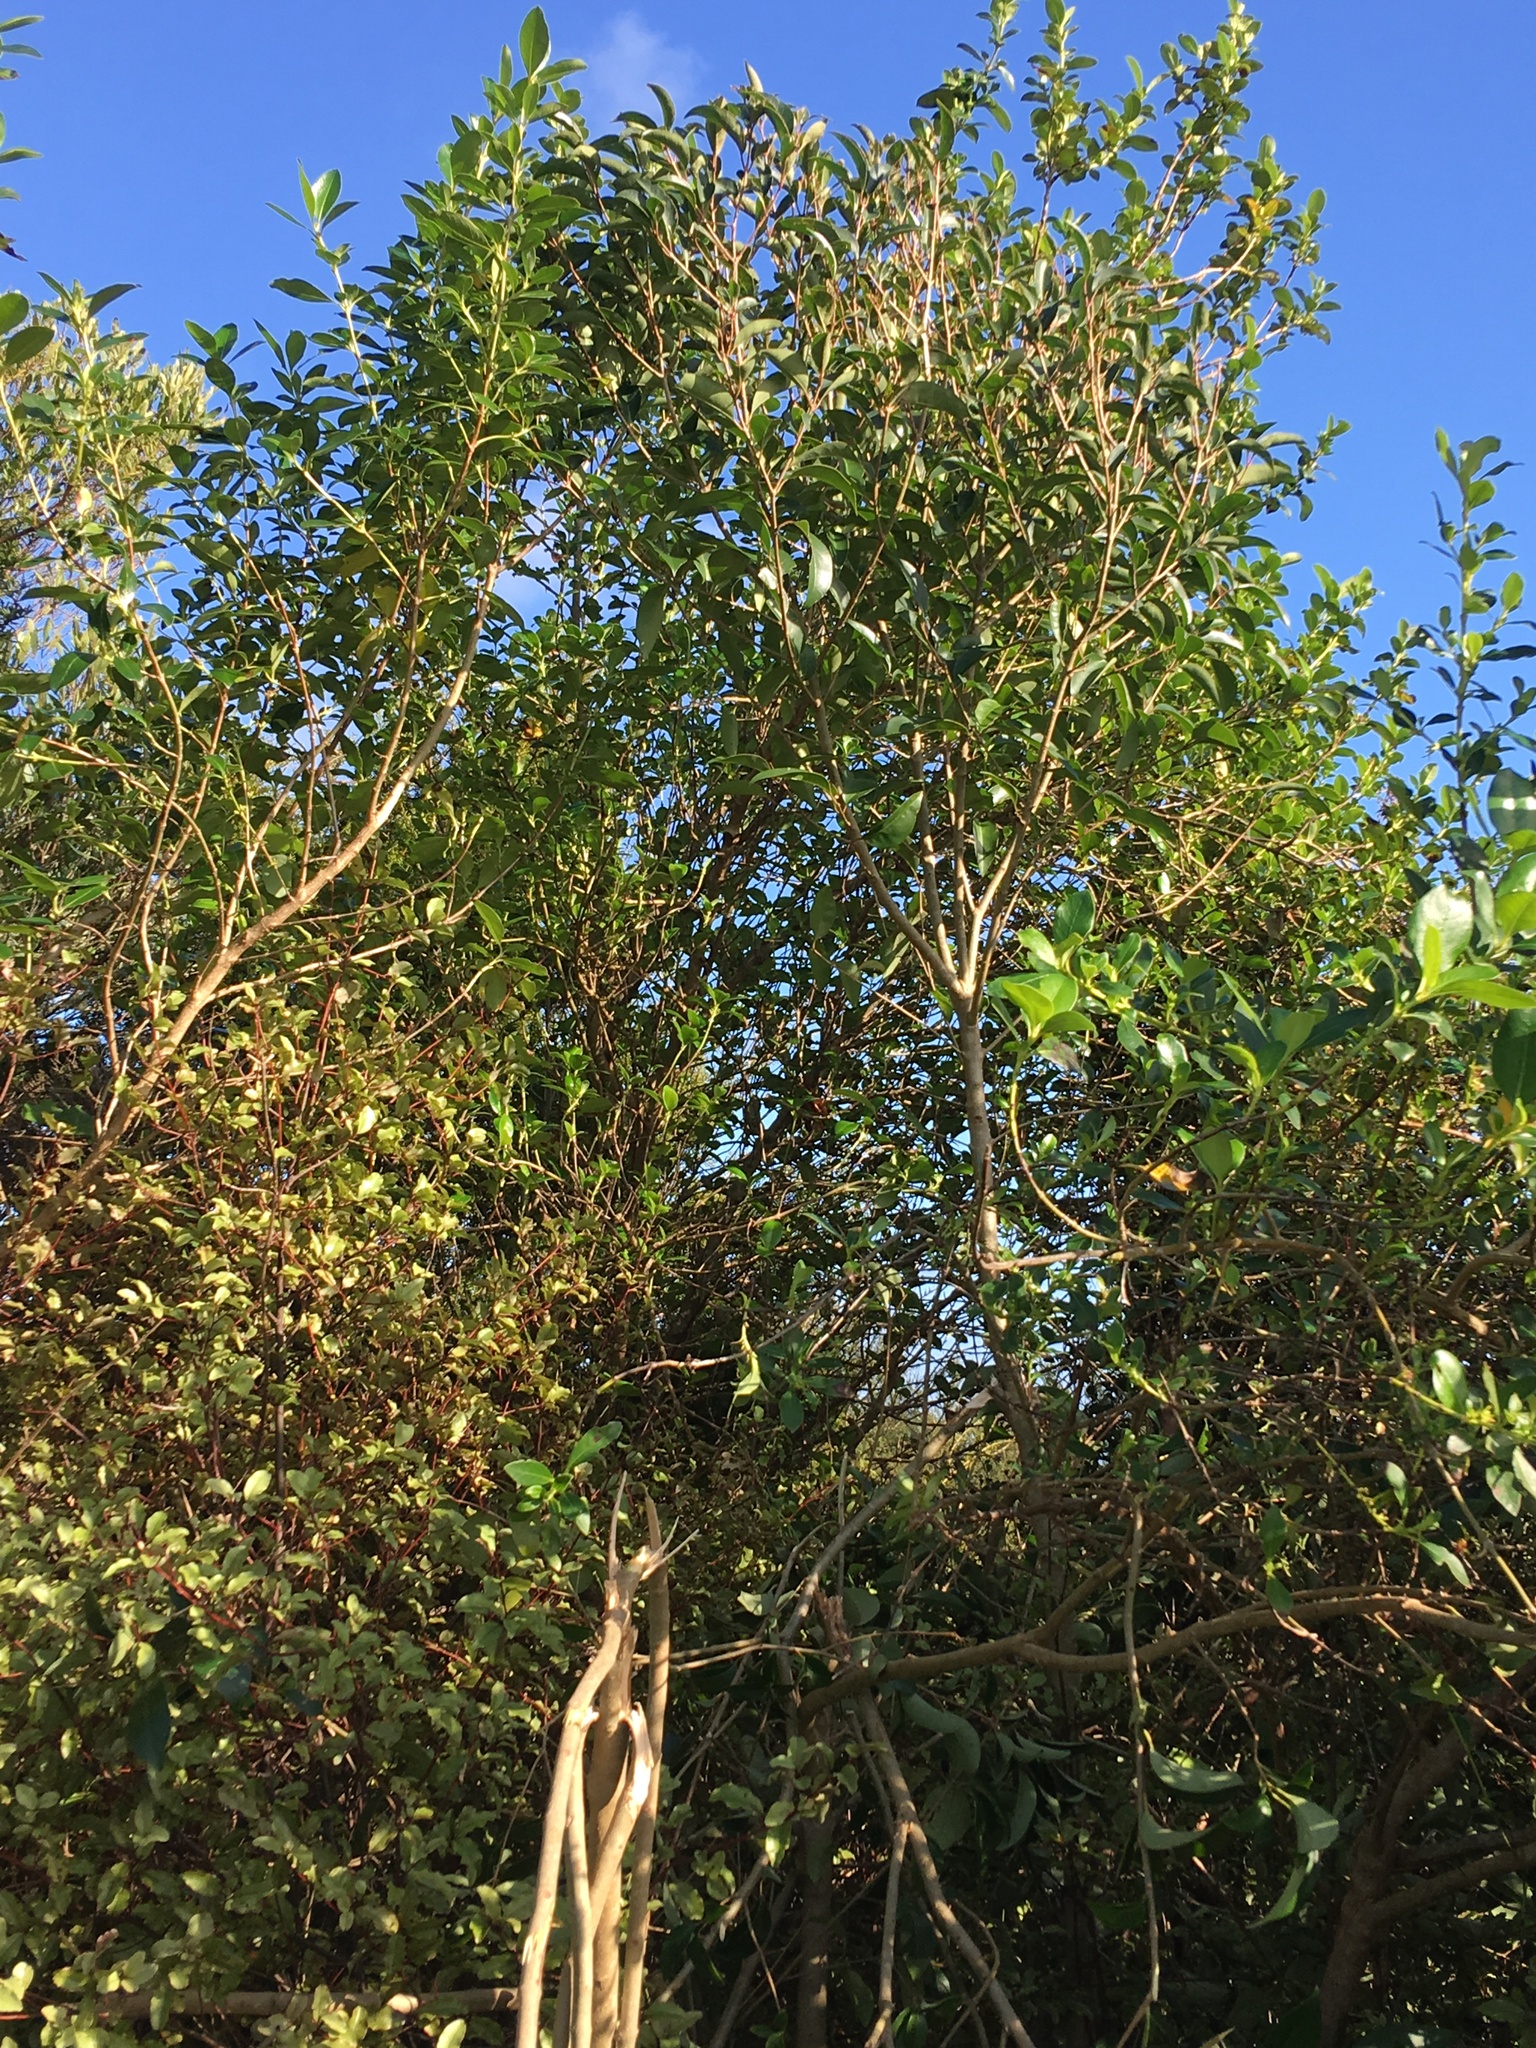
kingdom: Plantae
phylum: Tracheophyta
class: Magnoliopsida
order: Gentianales
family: Rubiaceae
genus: Coprosma
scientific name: Coprosma robusta
